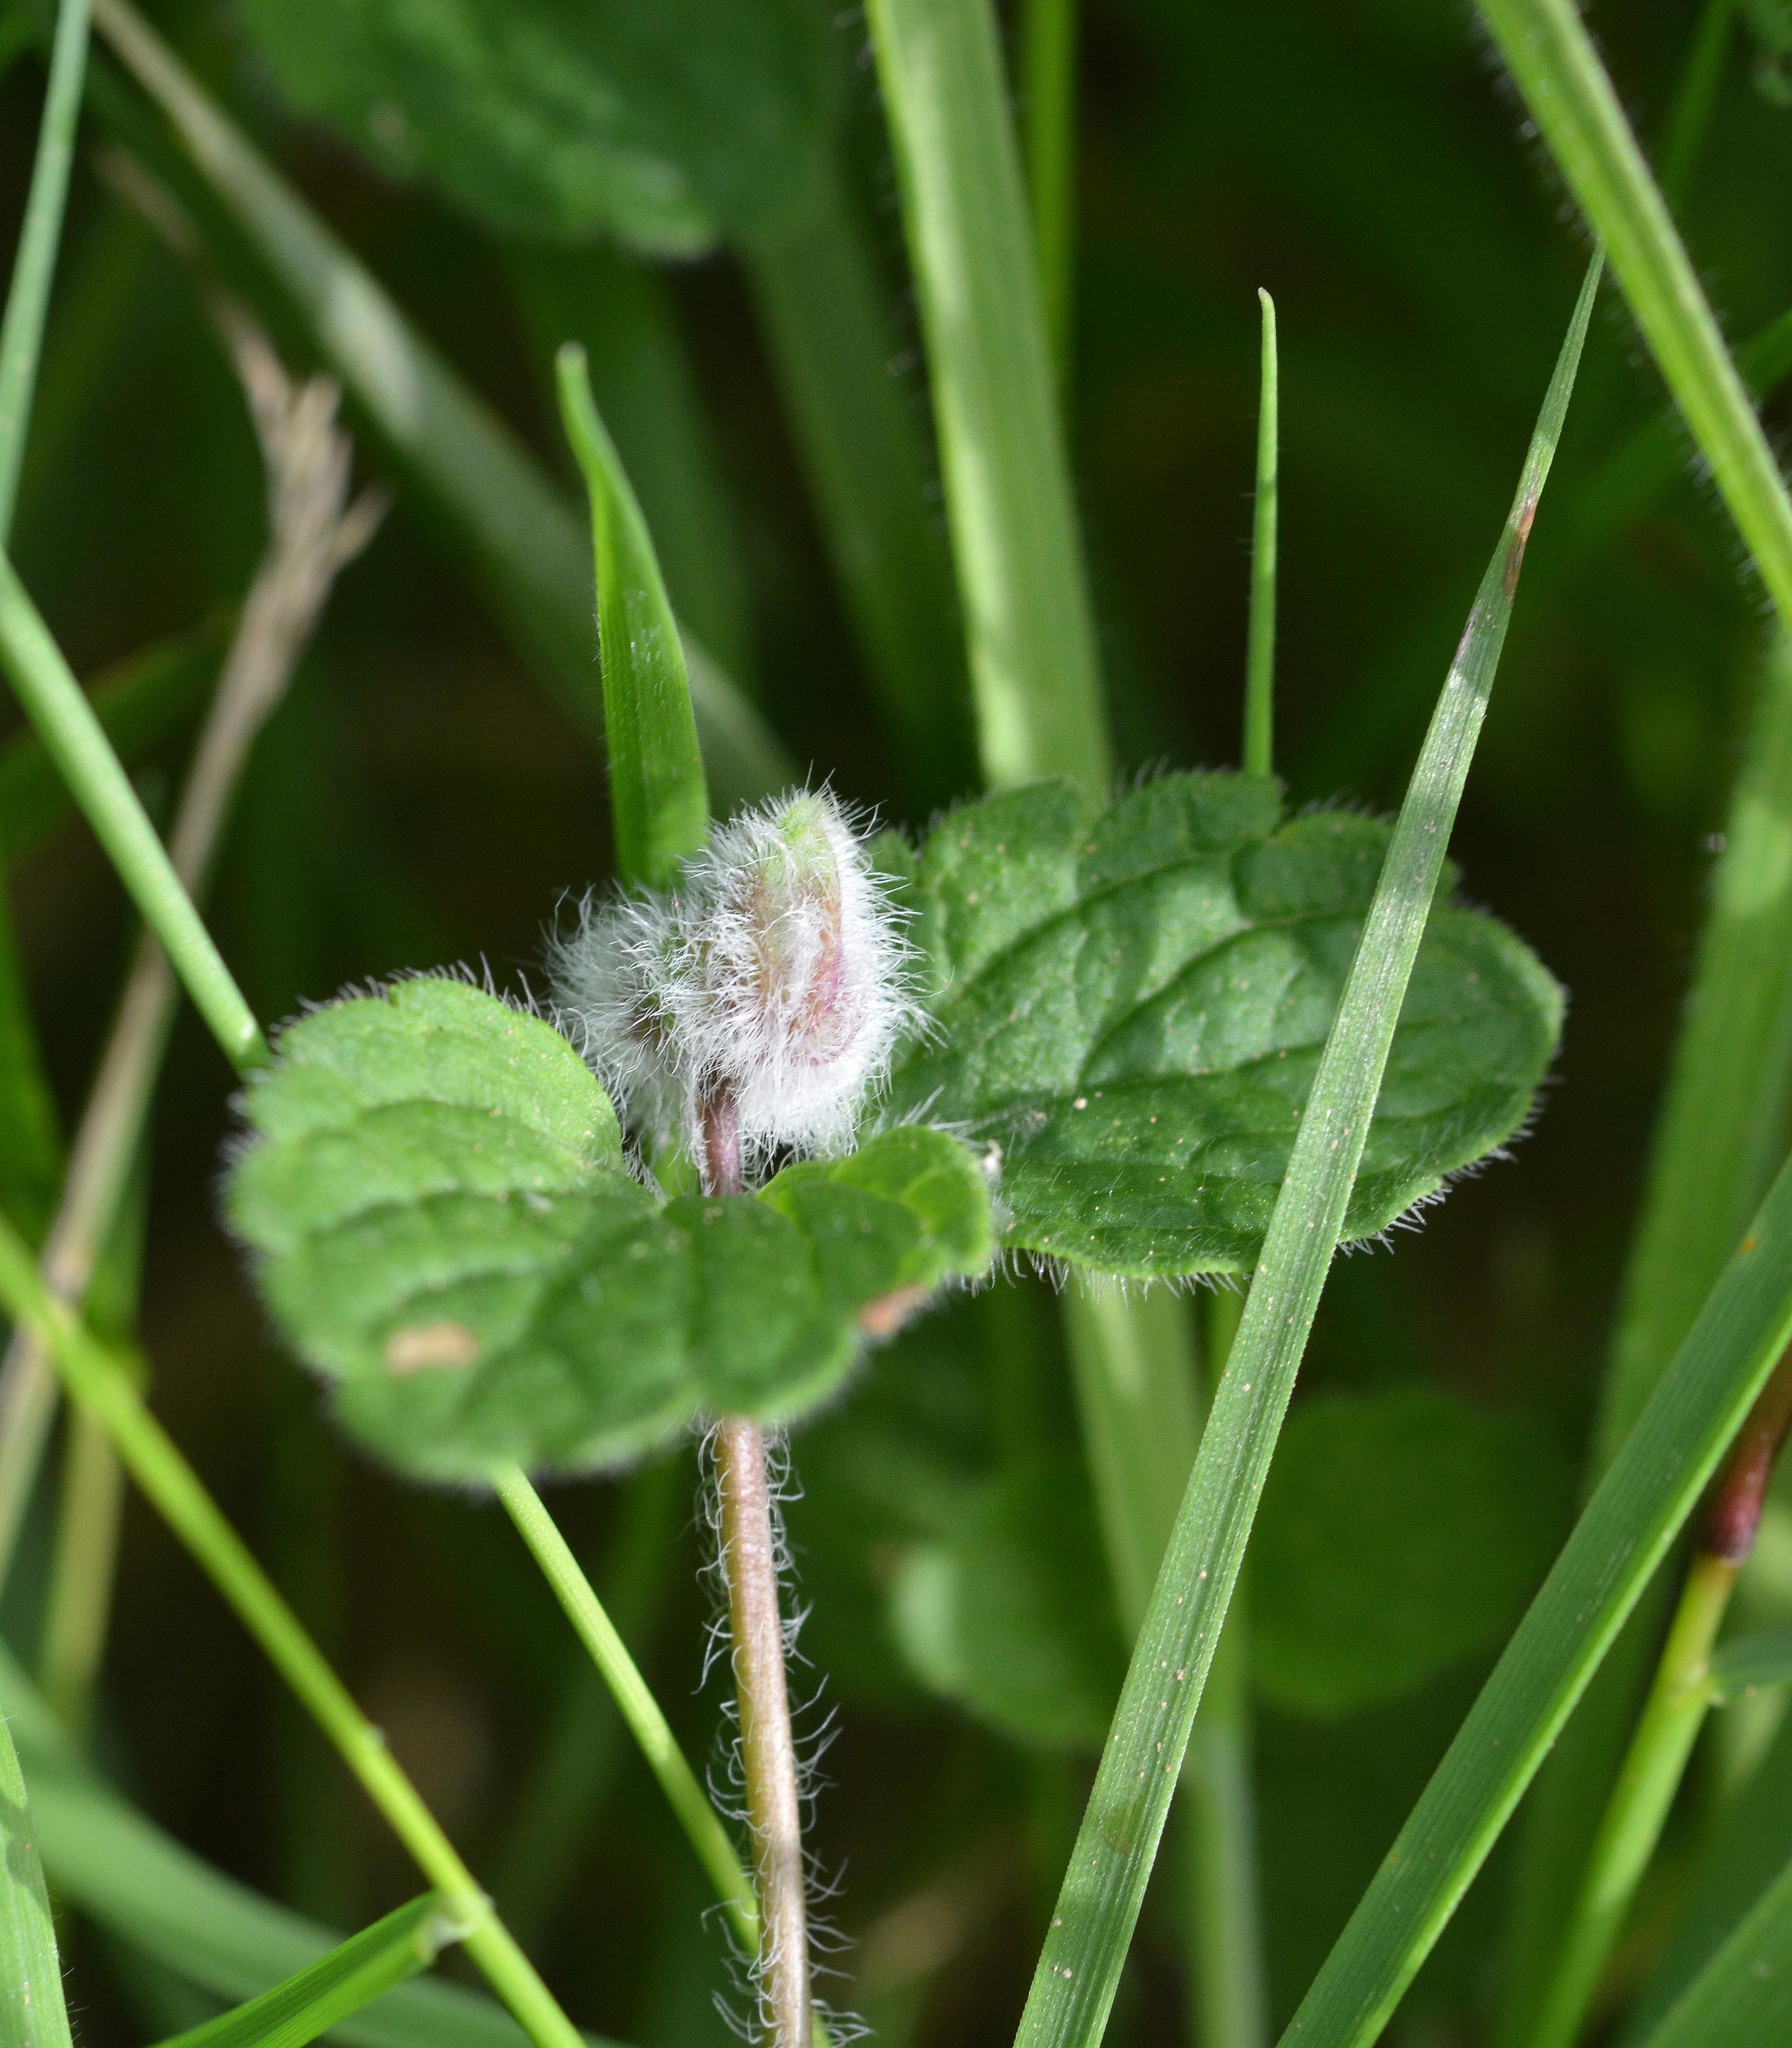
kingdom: Animalia
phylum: Arthropoda
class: Insecta
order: Diptera
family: Cecidomyiidae
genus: Jaapiella
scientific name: Jaapiella veronicae
